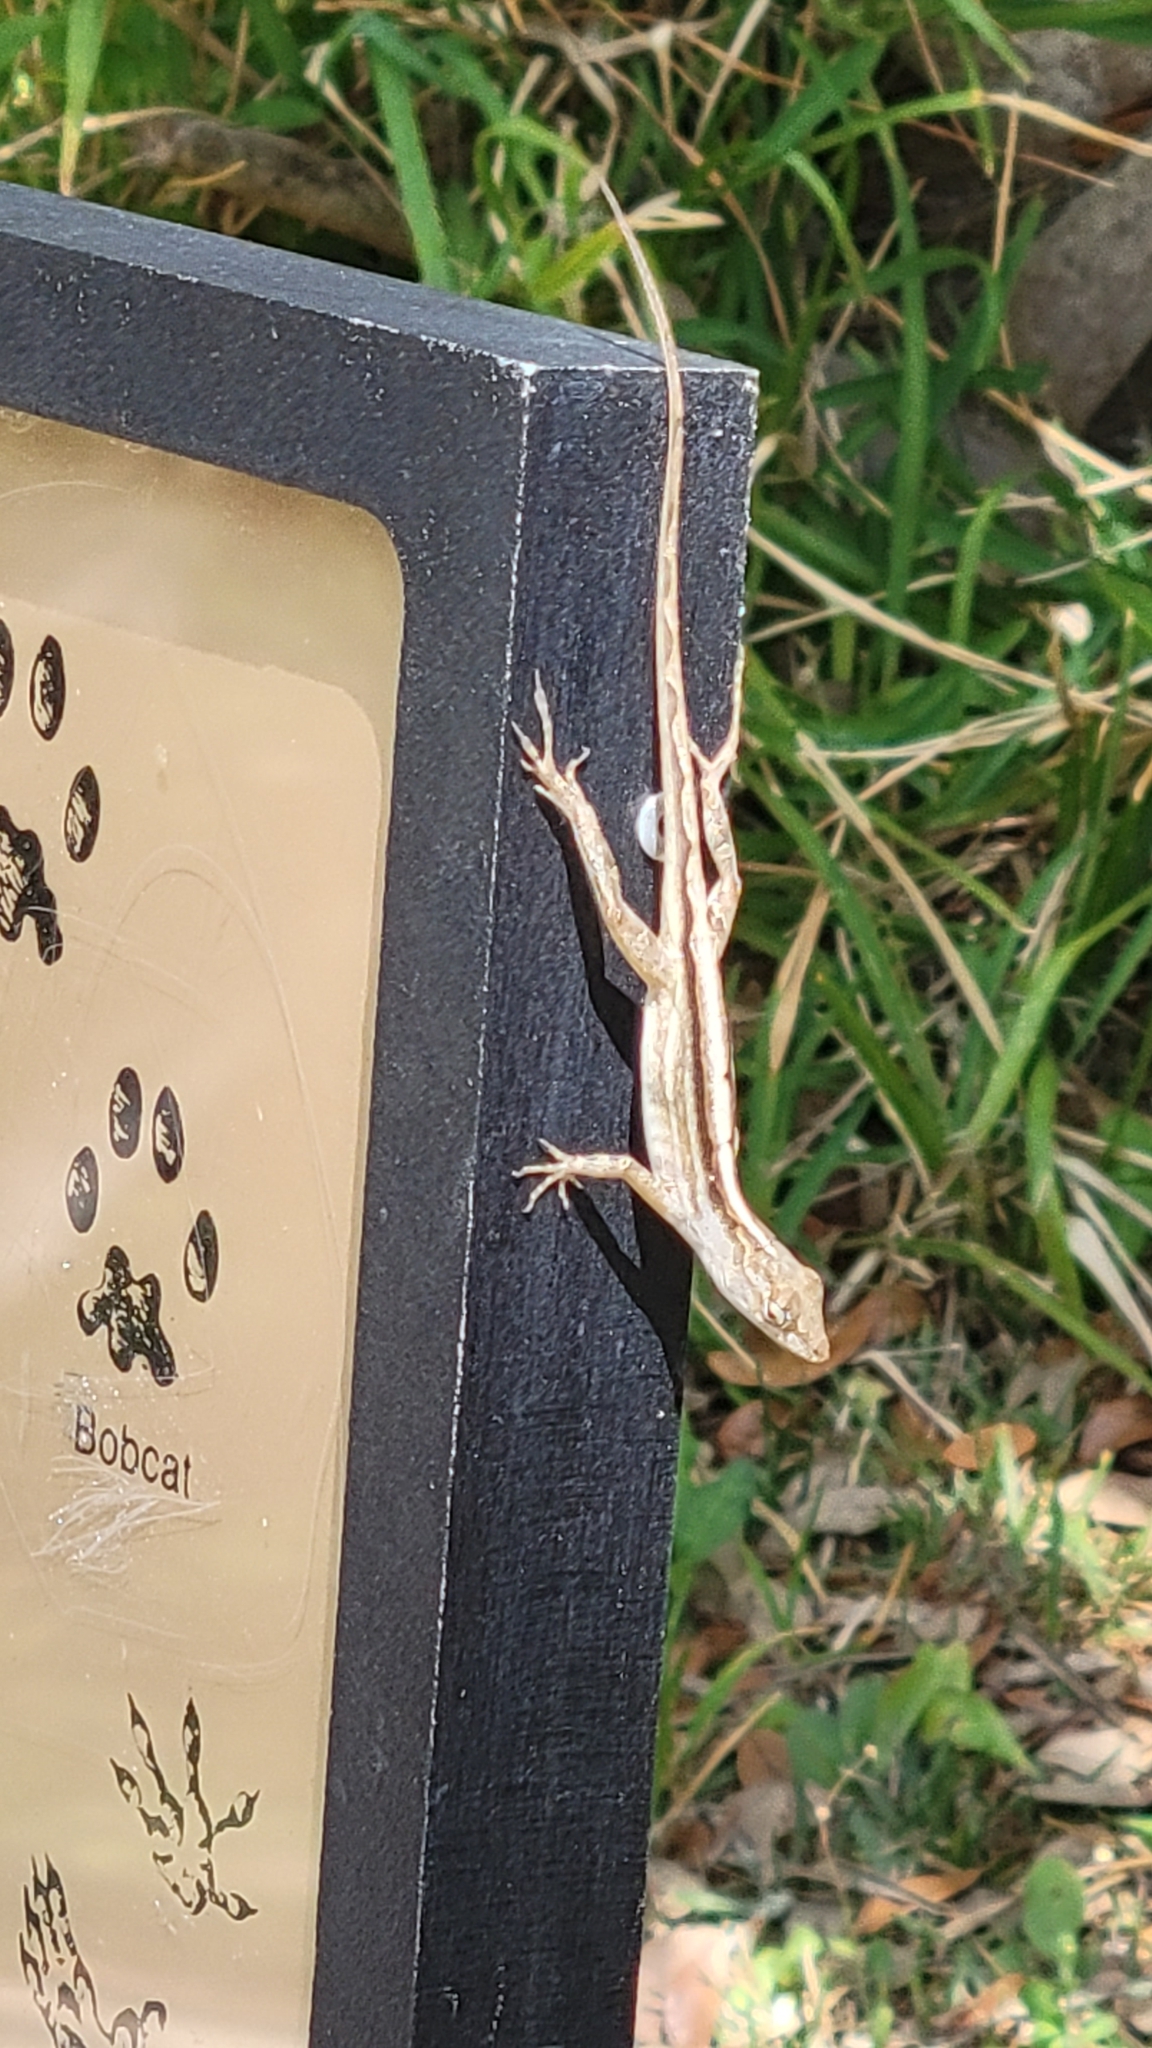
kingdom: Animalia
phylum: Chordata
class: Squamata
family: Dactyloidae
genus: Anolis
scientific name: Anolis sagrei
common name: Brown anole
